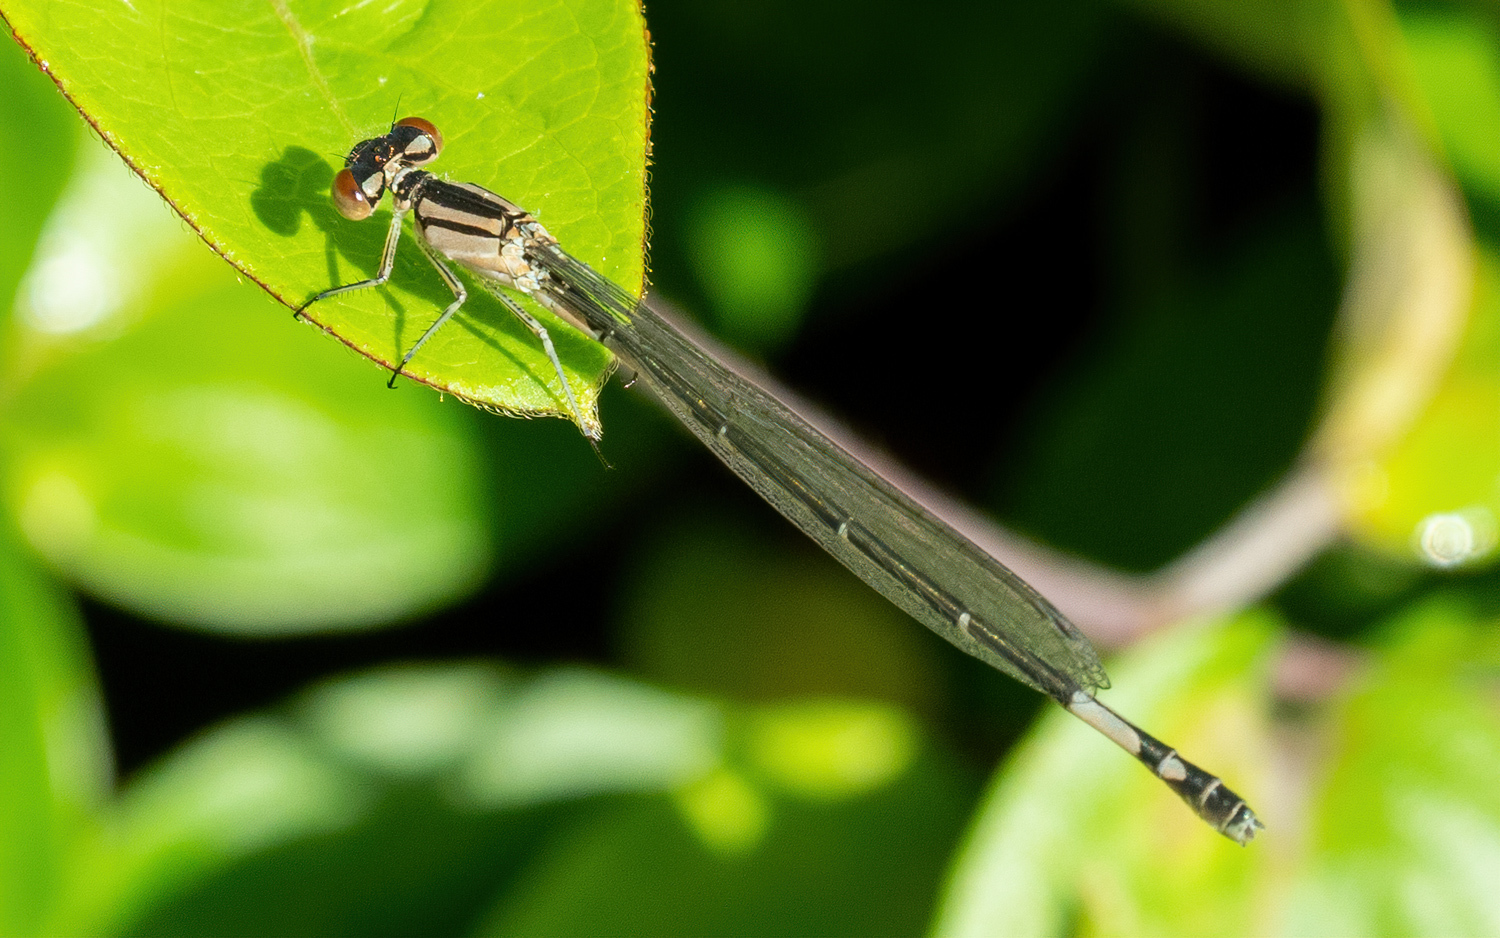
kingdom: Animalia
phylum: Arthropoda
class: Insecta
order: Odonata
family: Coenagrionidae
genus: Enallagma
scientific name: Enallagma aspersum
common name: Azure bluet
